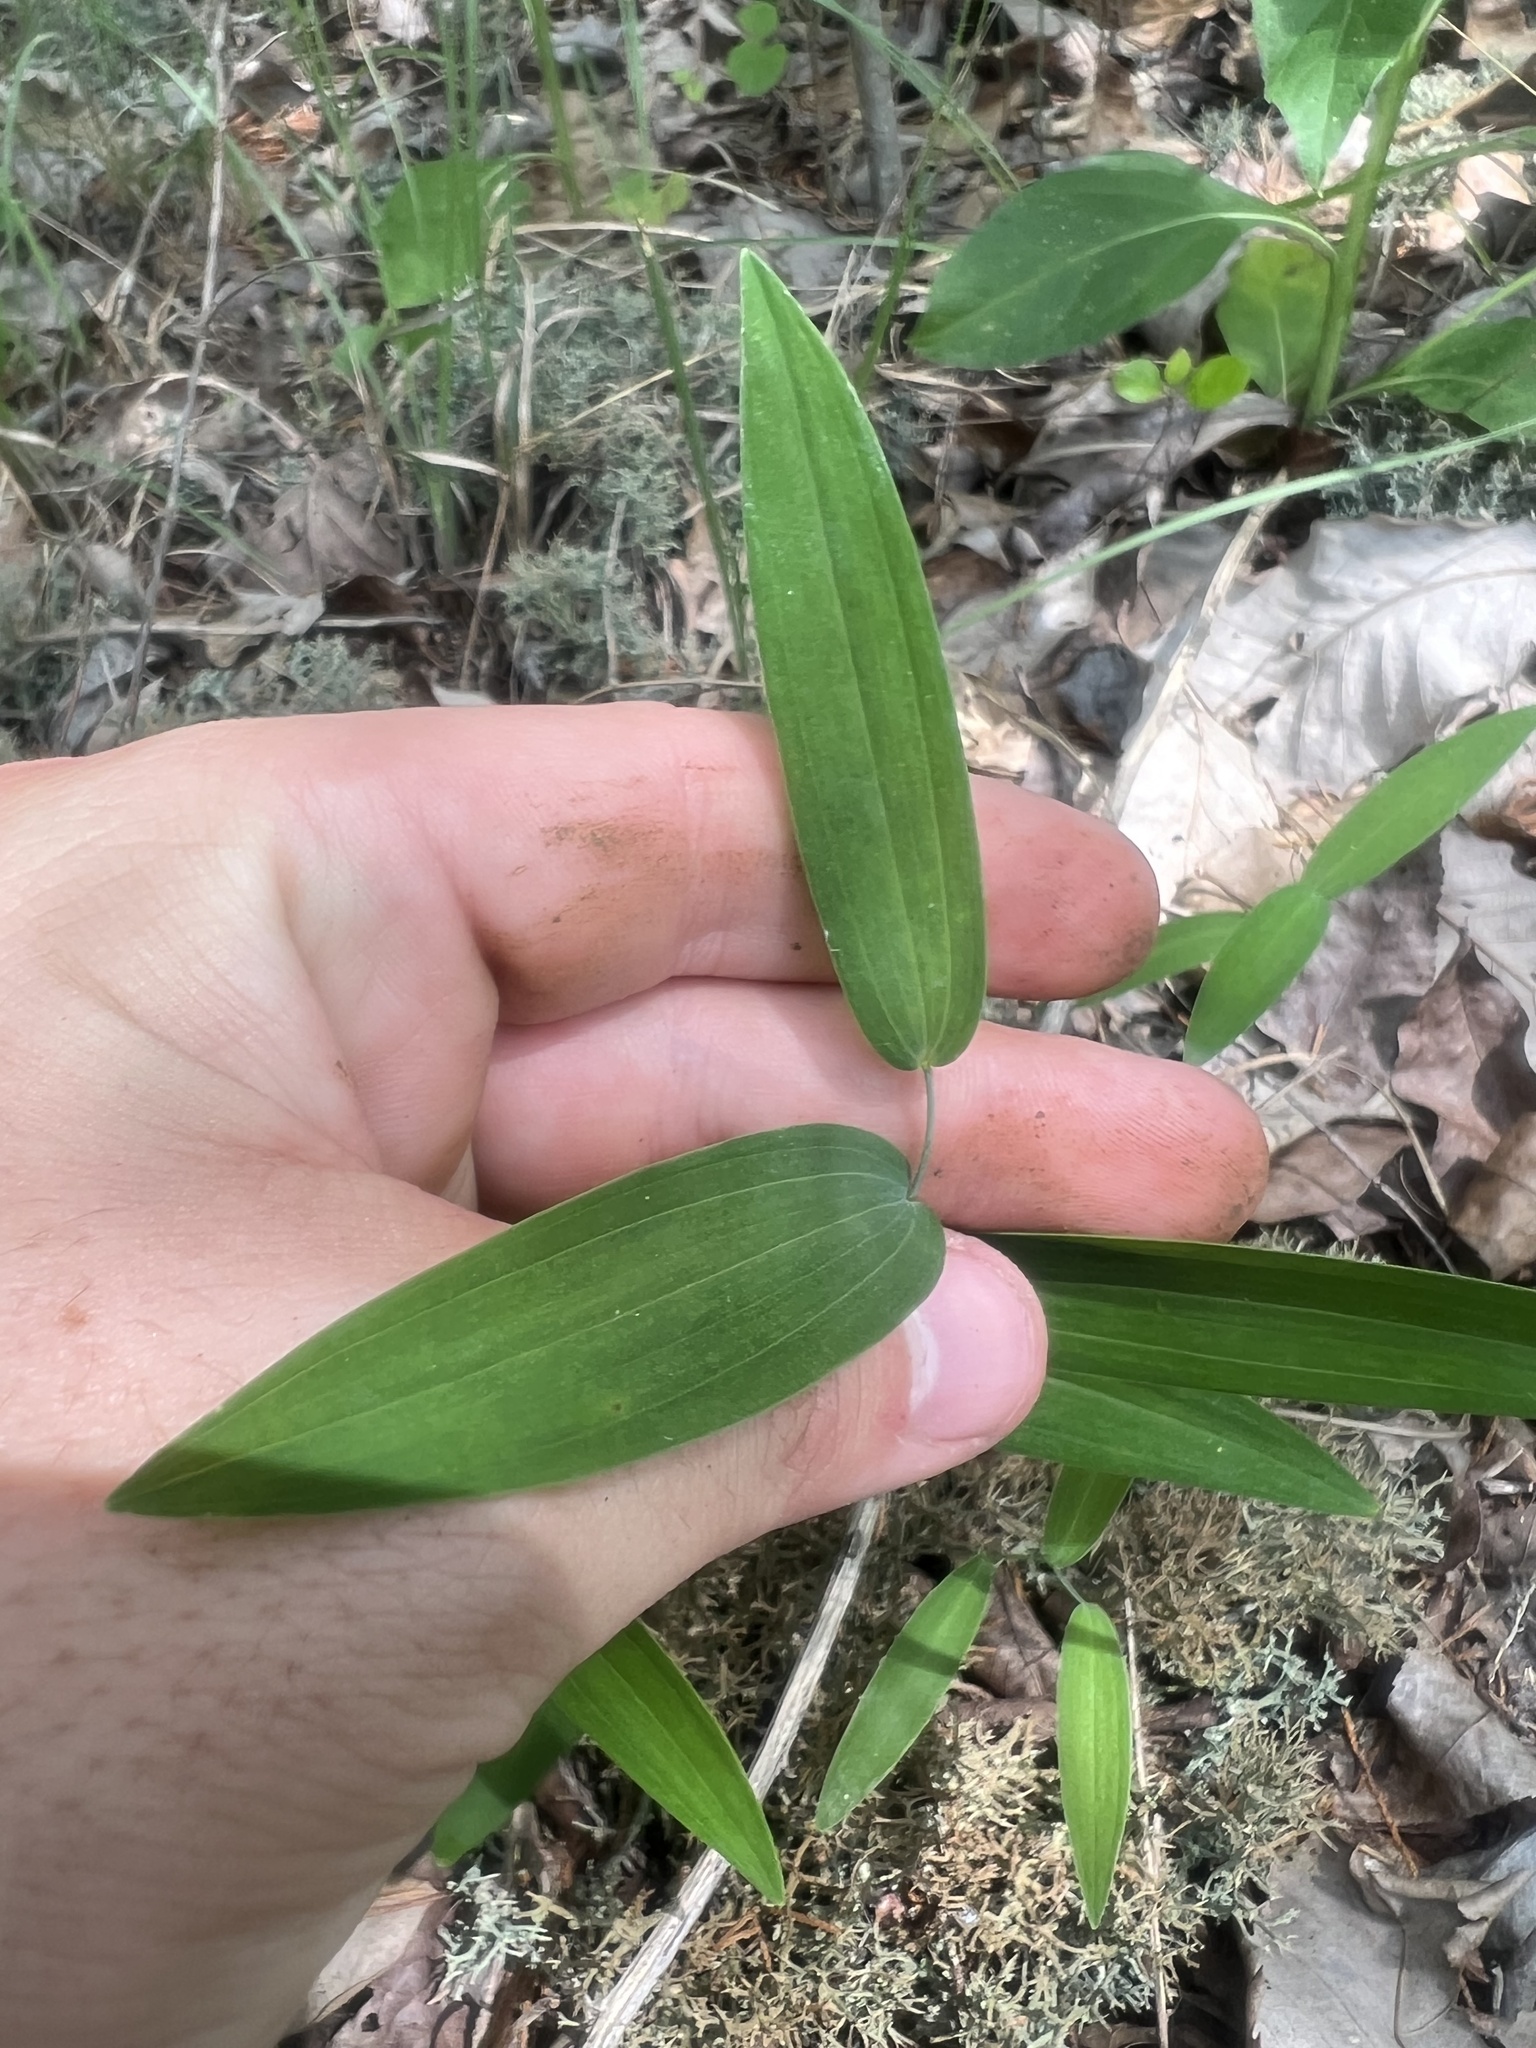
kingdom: Plantae
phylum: Tracheophyta
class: Liliopsida
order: Asparagales
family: Asparagaceae
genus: Polygonatum
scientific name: Polygonatum biflorum
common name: American solomon's-seal
